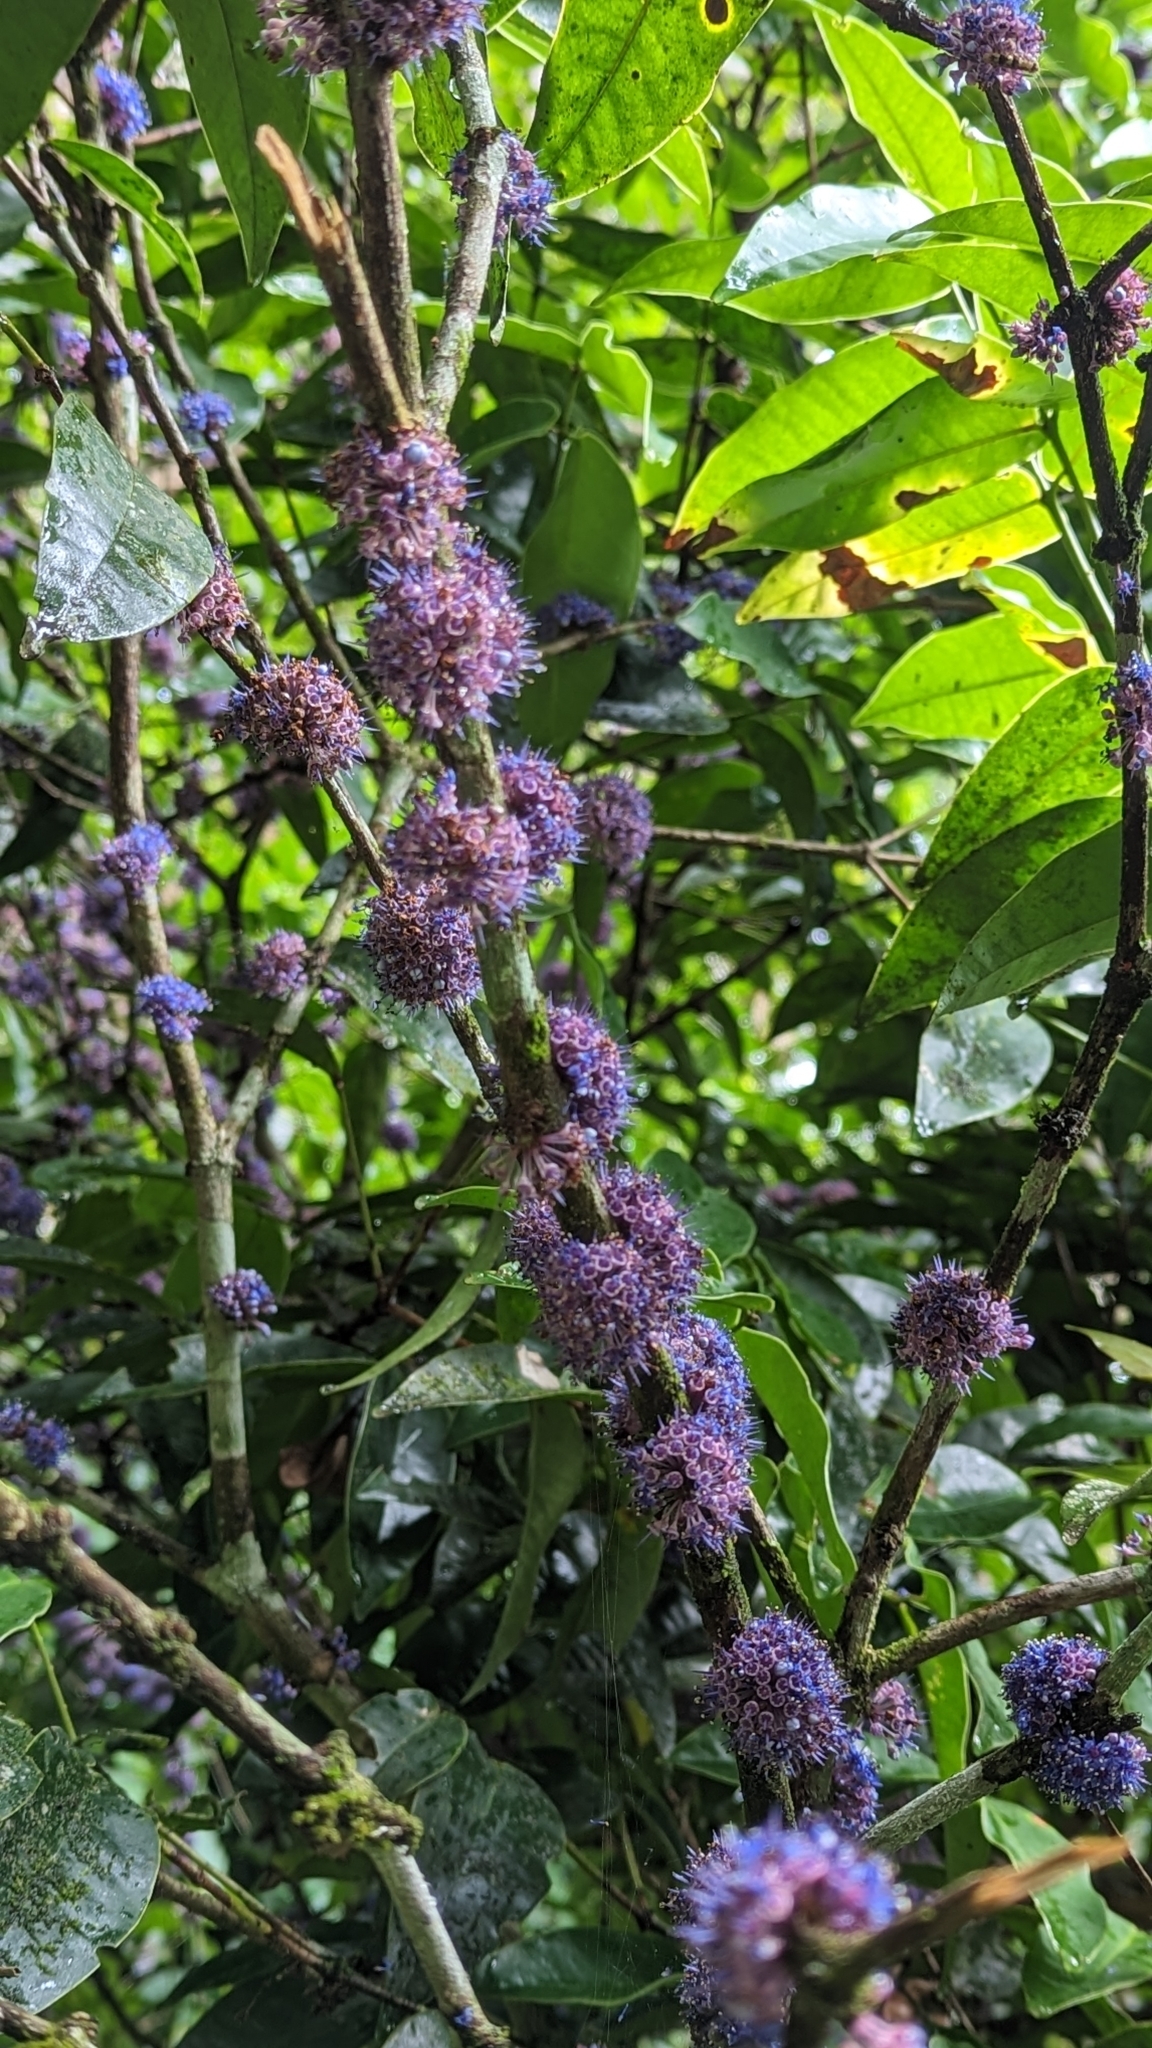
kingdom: Plantae
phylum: Tracheophyta
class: Magnoliopsida
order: Myrtales
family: Melastomataceae
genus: Memecylon
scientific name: Memecylon sessile
